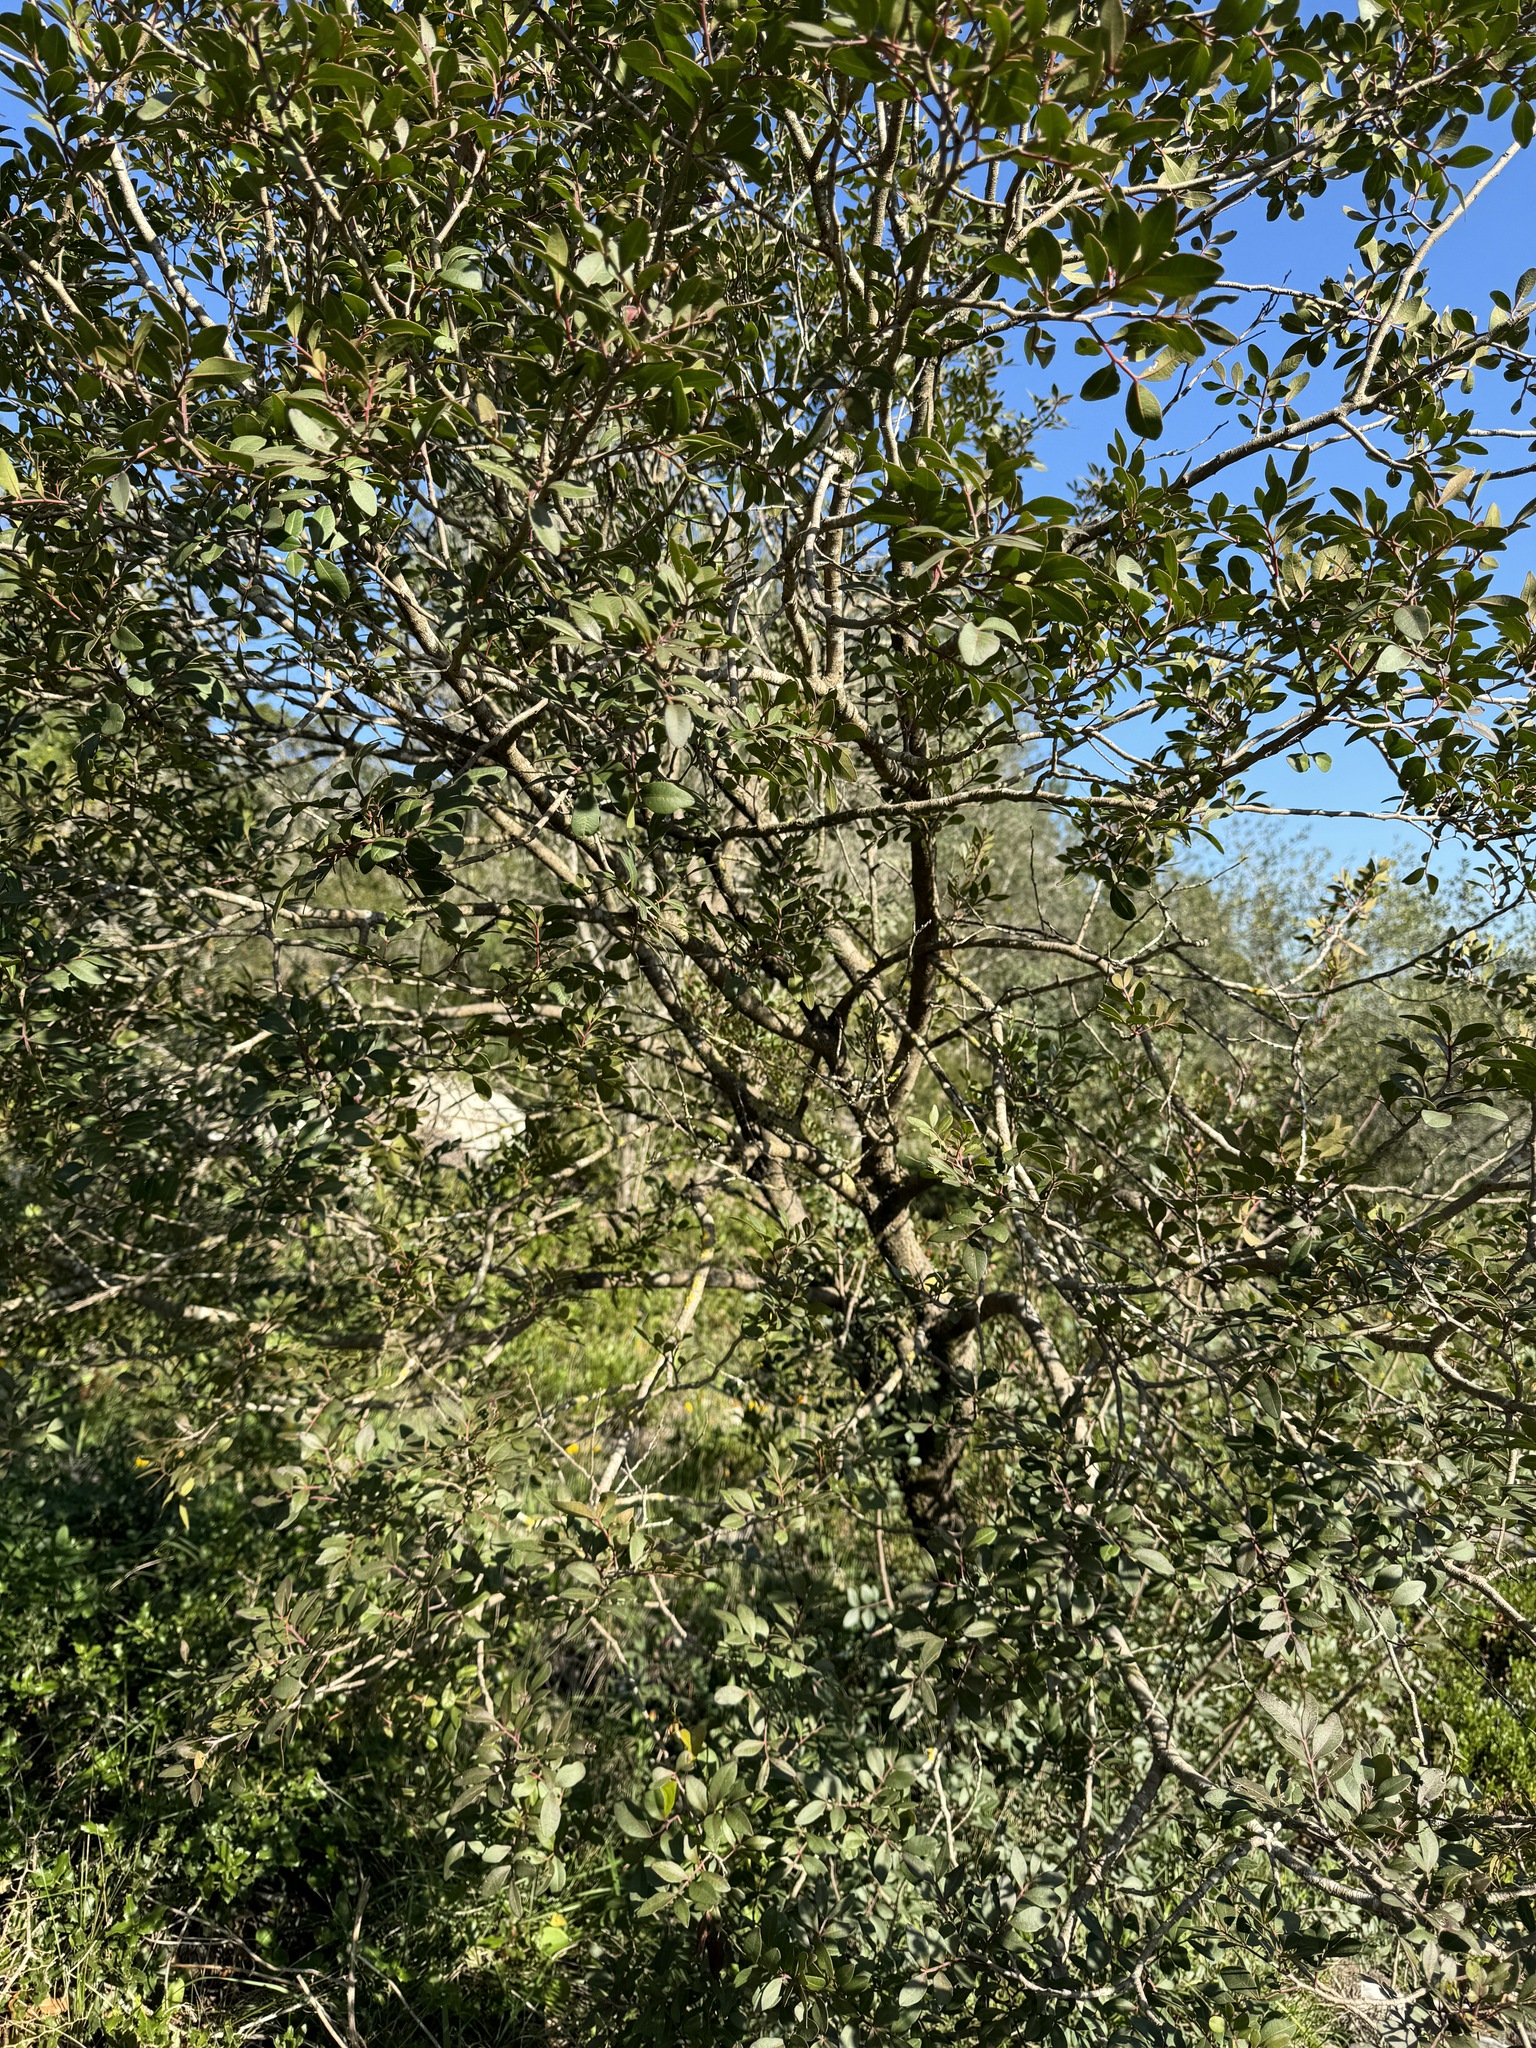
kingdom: Plantae
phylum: Tracheophyta
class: Magnoliopsida
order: Sapindales
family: Anacardiaceae
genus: Pistacia
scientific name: Pistacia lentiscus
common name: Lentisk
